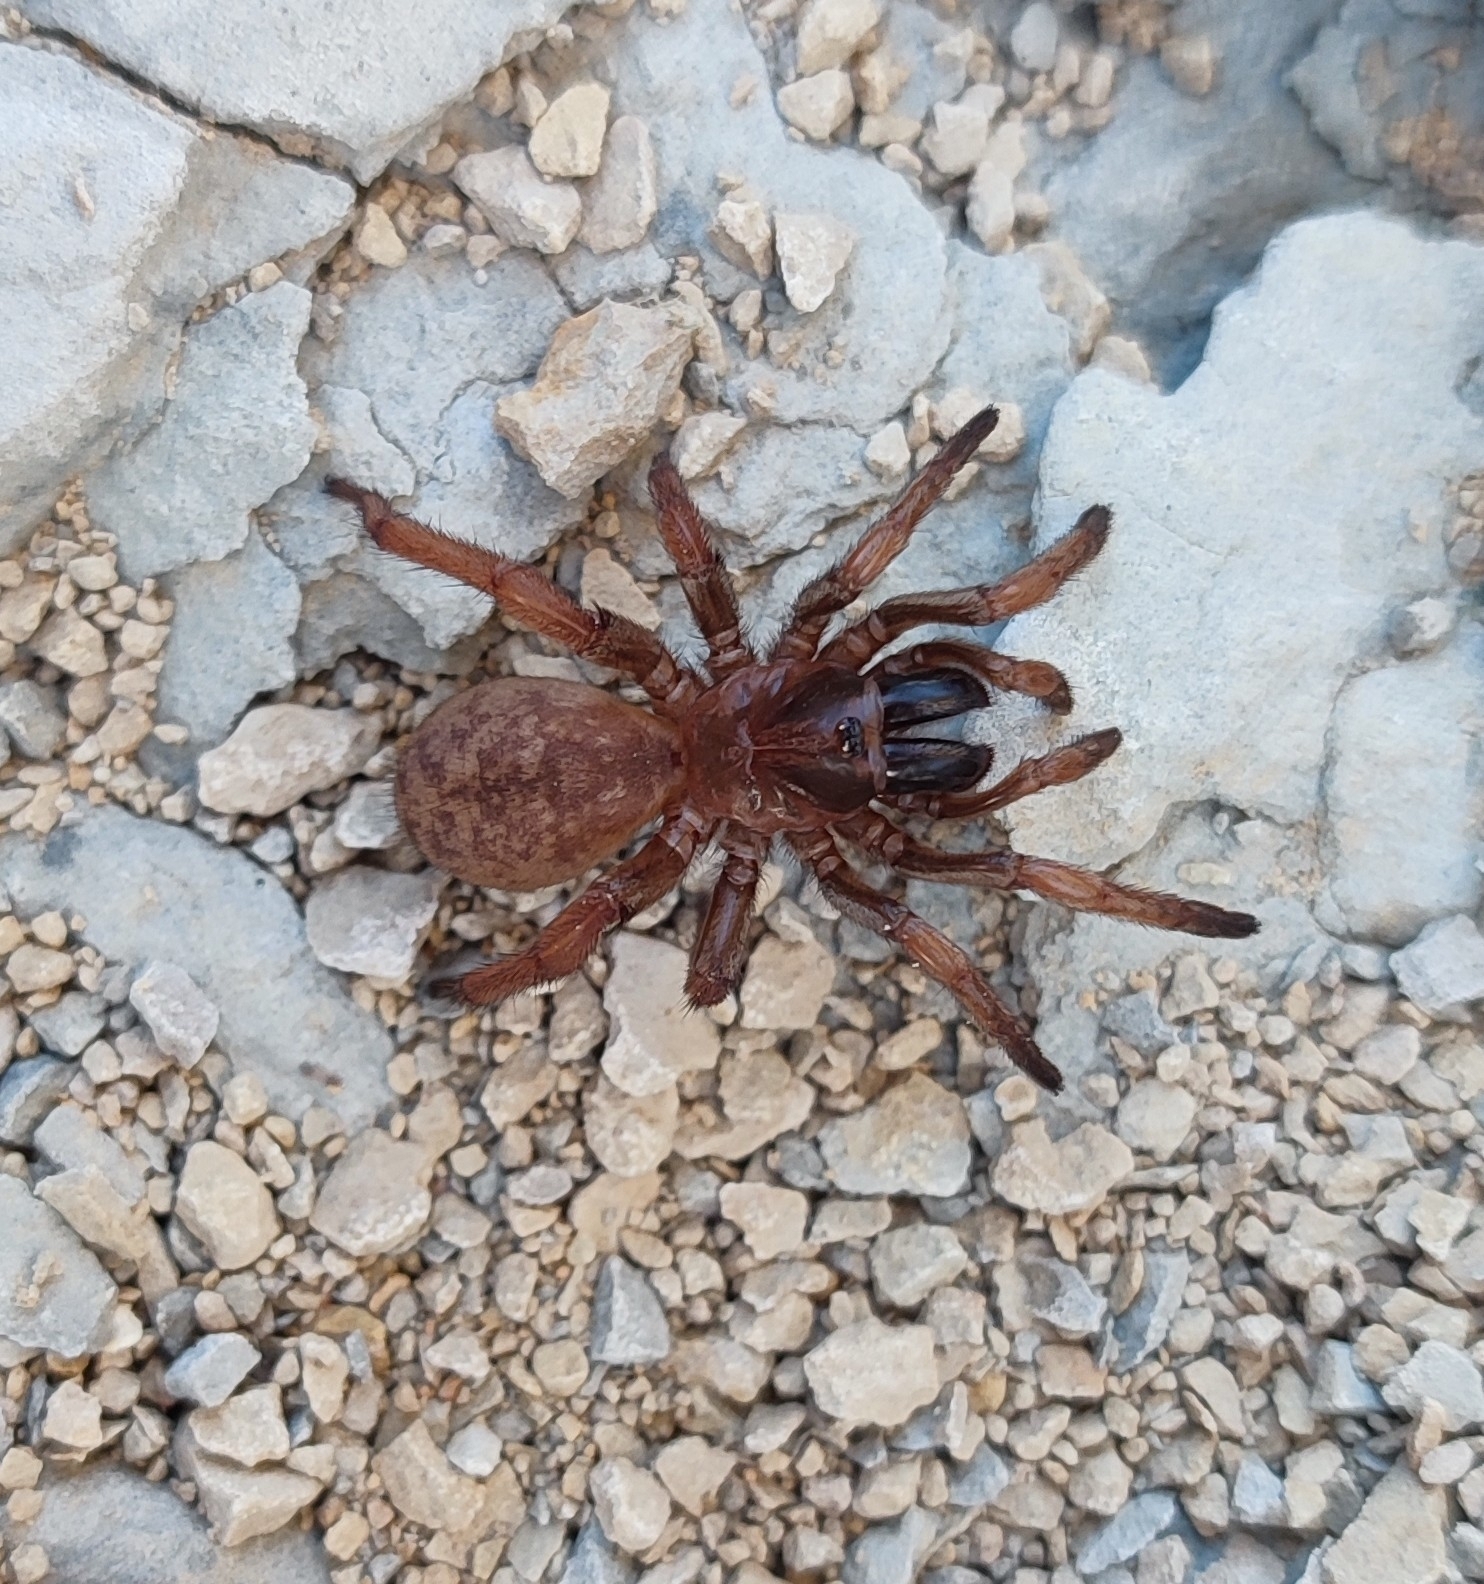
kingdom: Animalia
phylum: Arthropoda
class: Arachnida
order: Araneae
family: Nemesiidae
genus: Nemesia
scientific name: Nemesia
